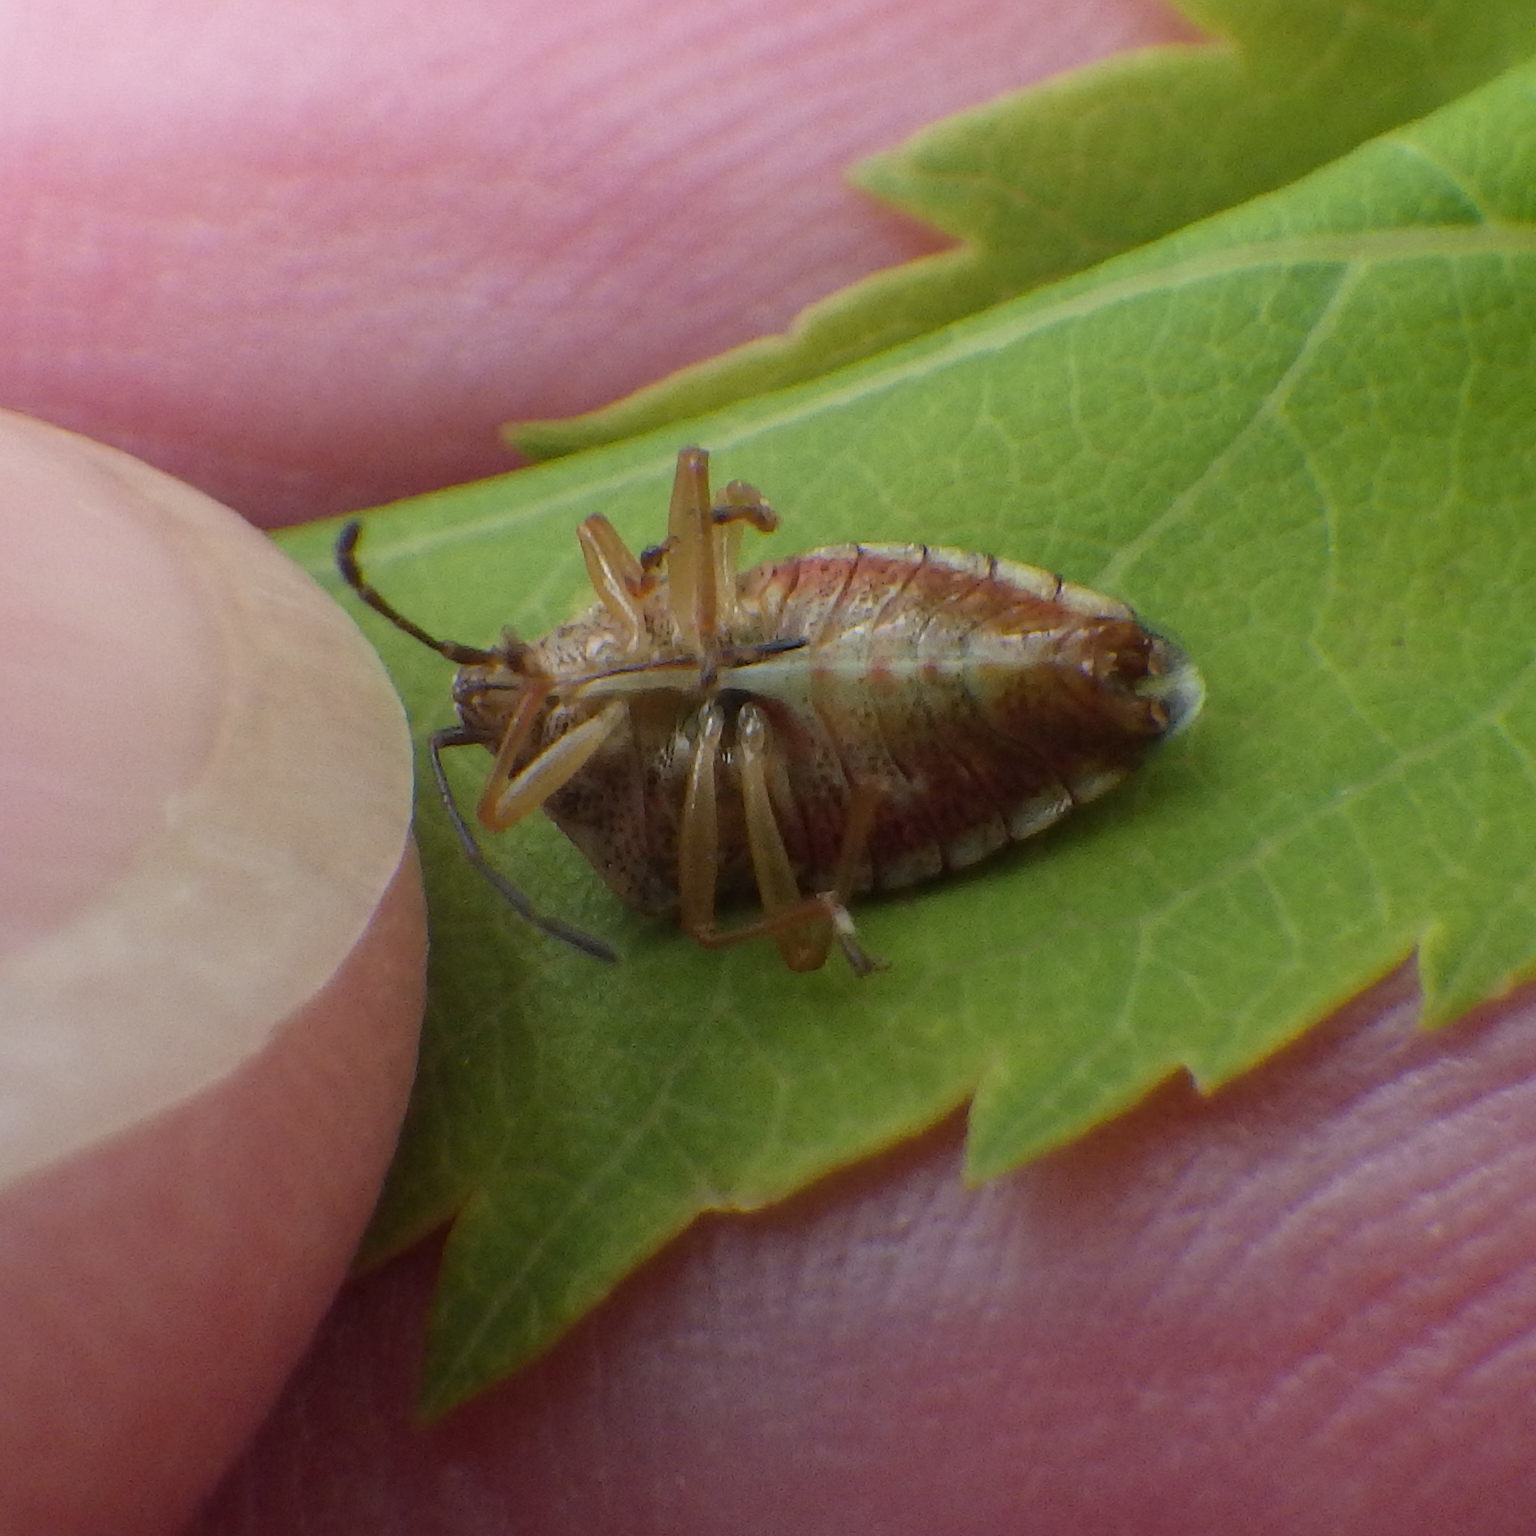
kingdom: Animalia
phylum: Arthropoda
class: Insecta
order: Hemiptera
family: Acanthosomatidae
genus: Elasmucha
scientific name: Elasmucha lateralis
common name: Shield bug
